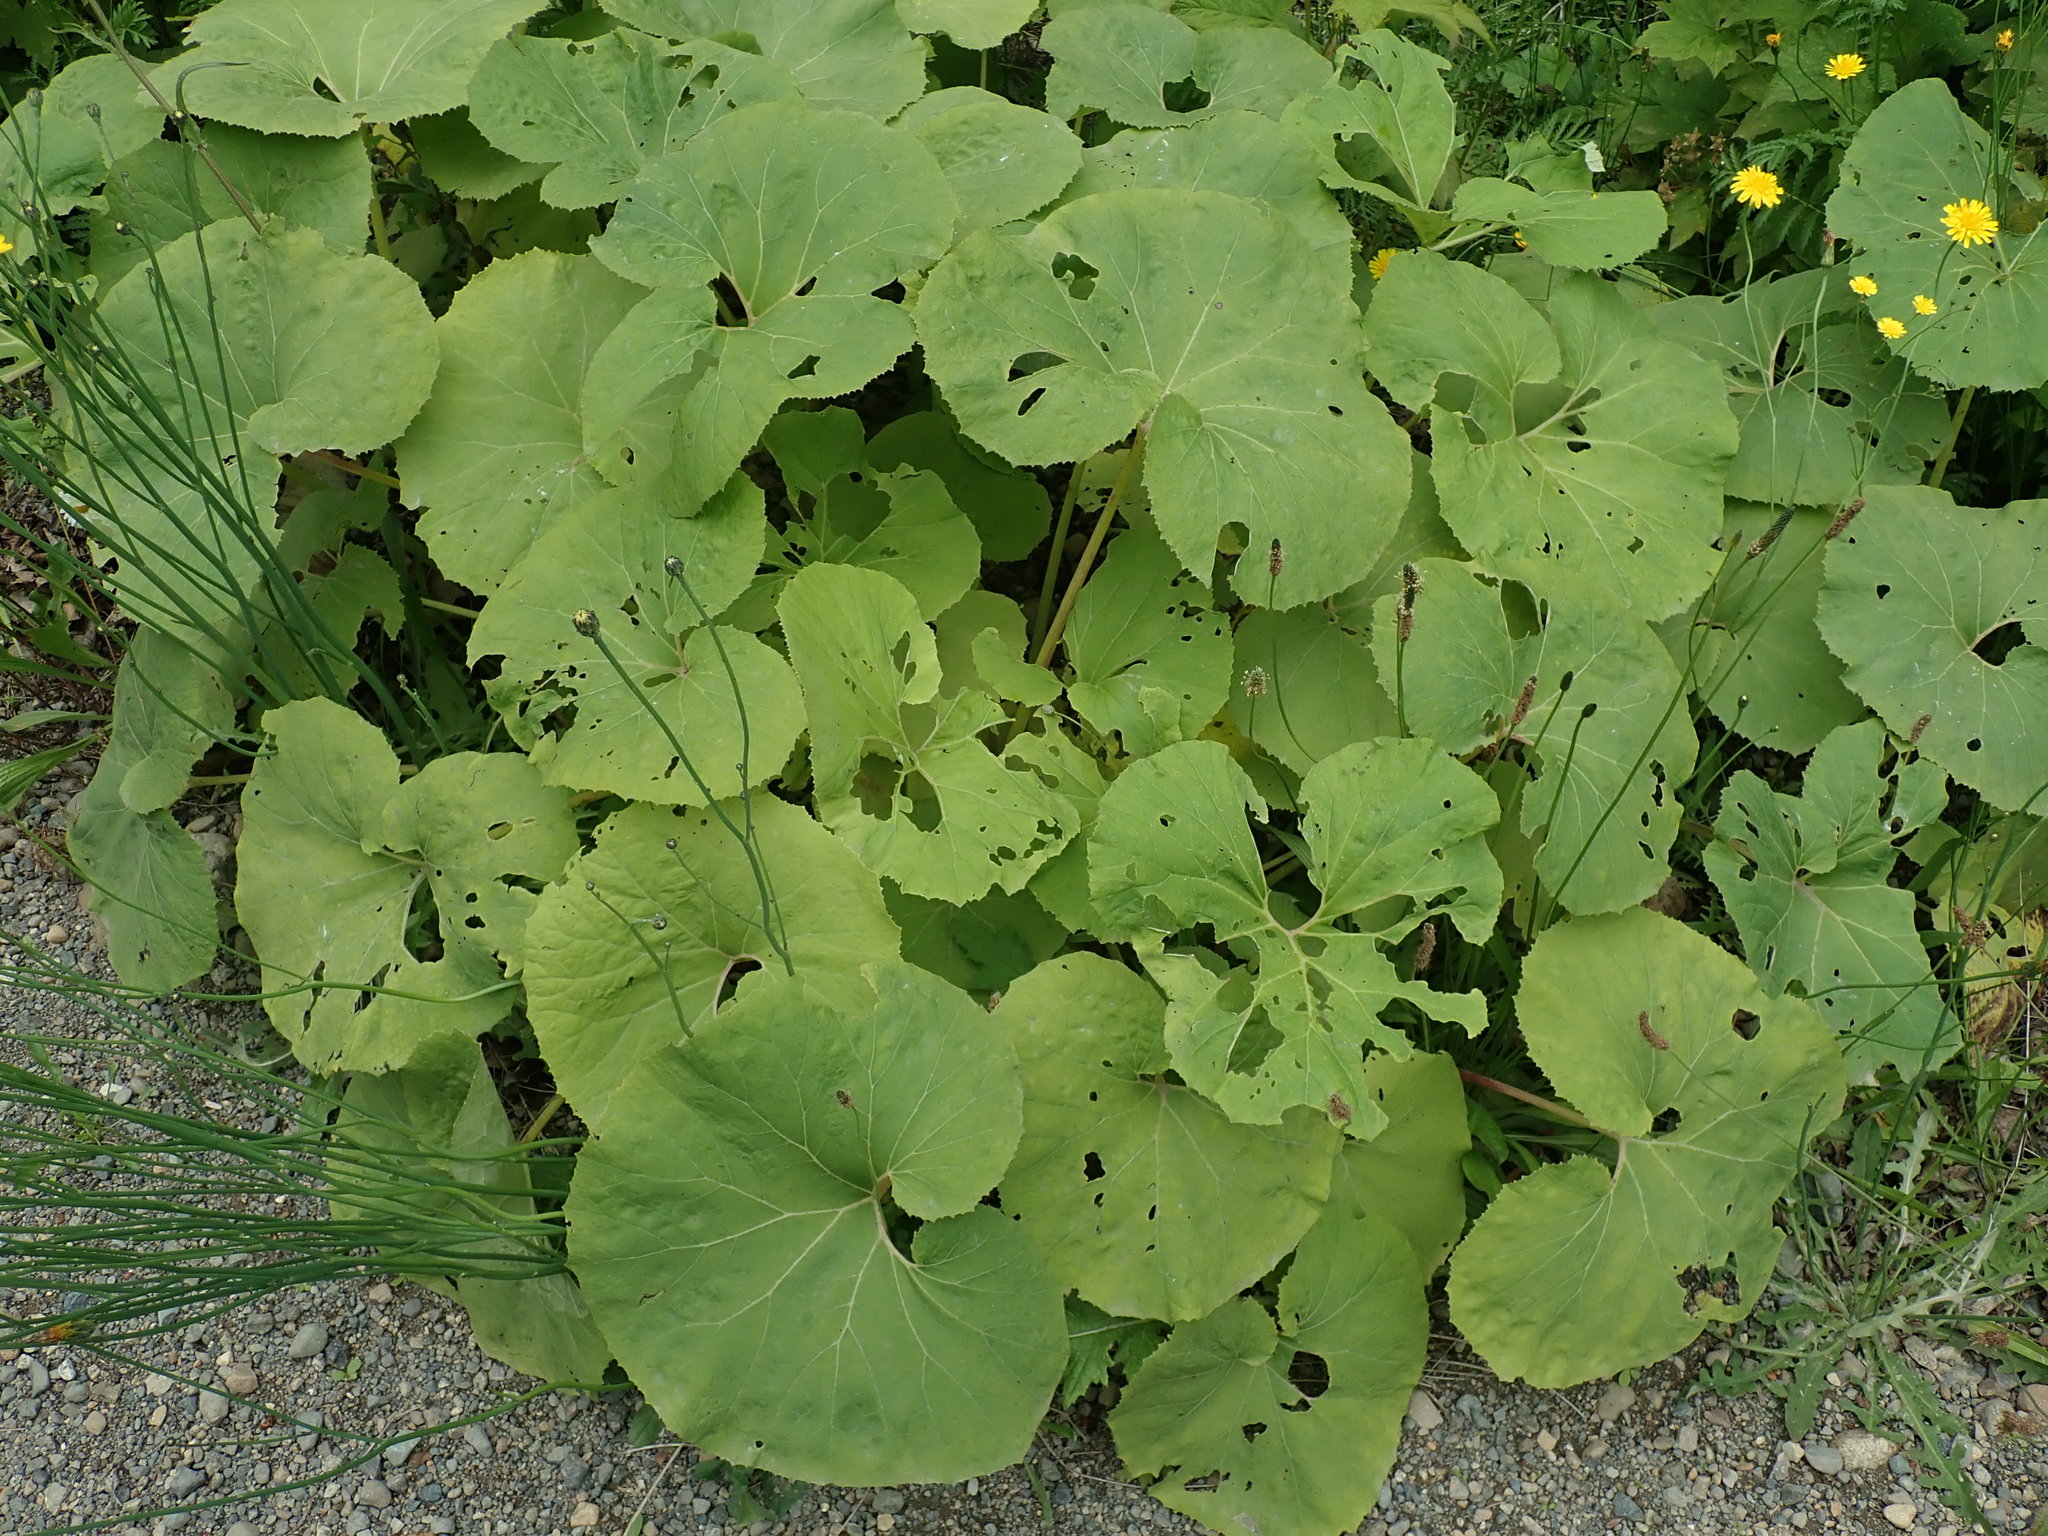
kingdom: Plantae
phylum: Tracheophyta
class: Magnoliopsida
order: Asterales
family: Asteraceae
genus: Petasites
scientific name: Petasites japonicus
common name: Giant butterbur
